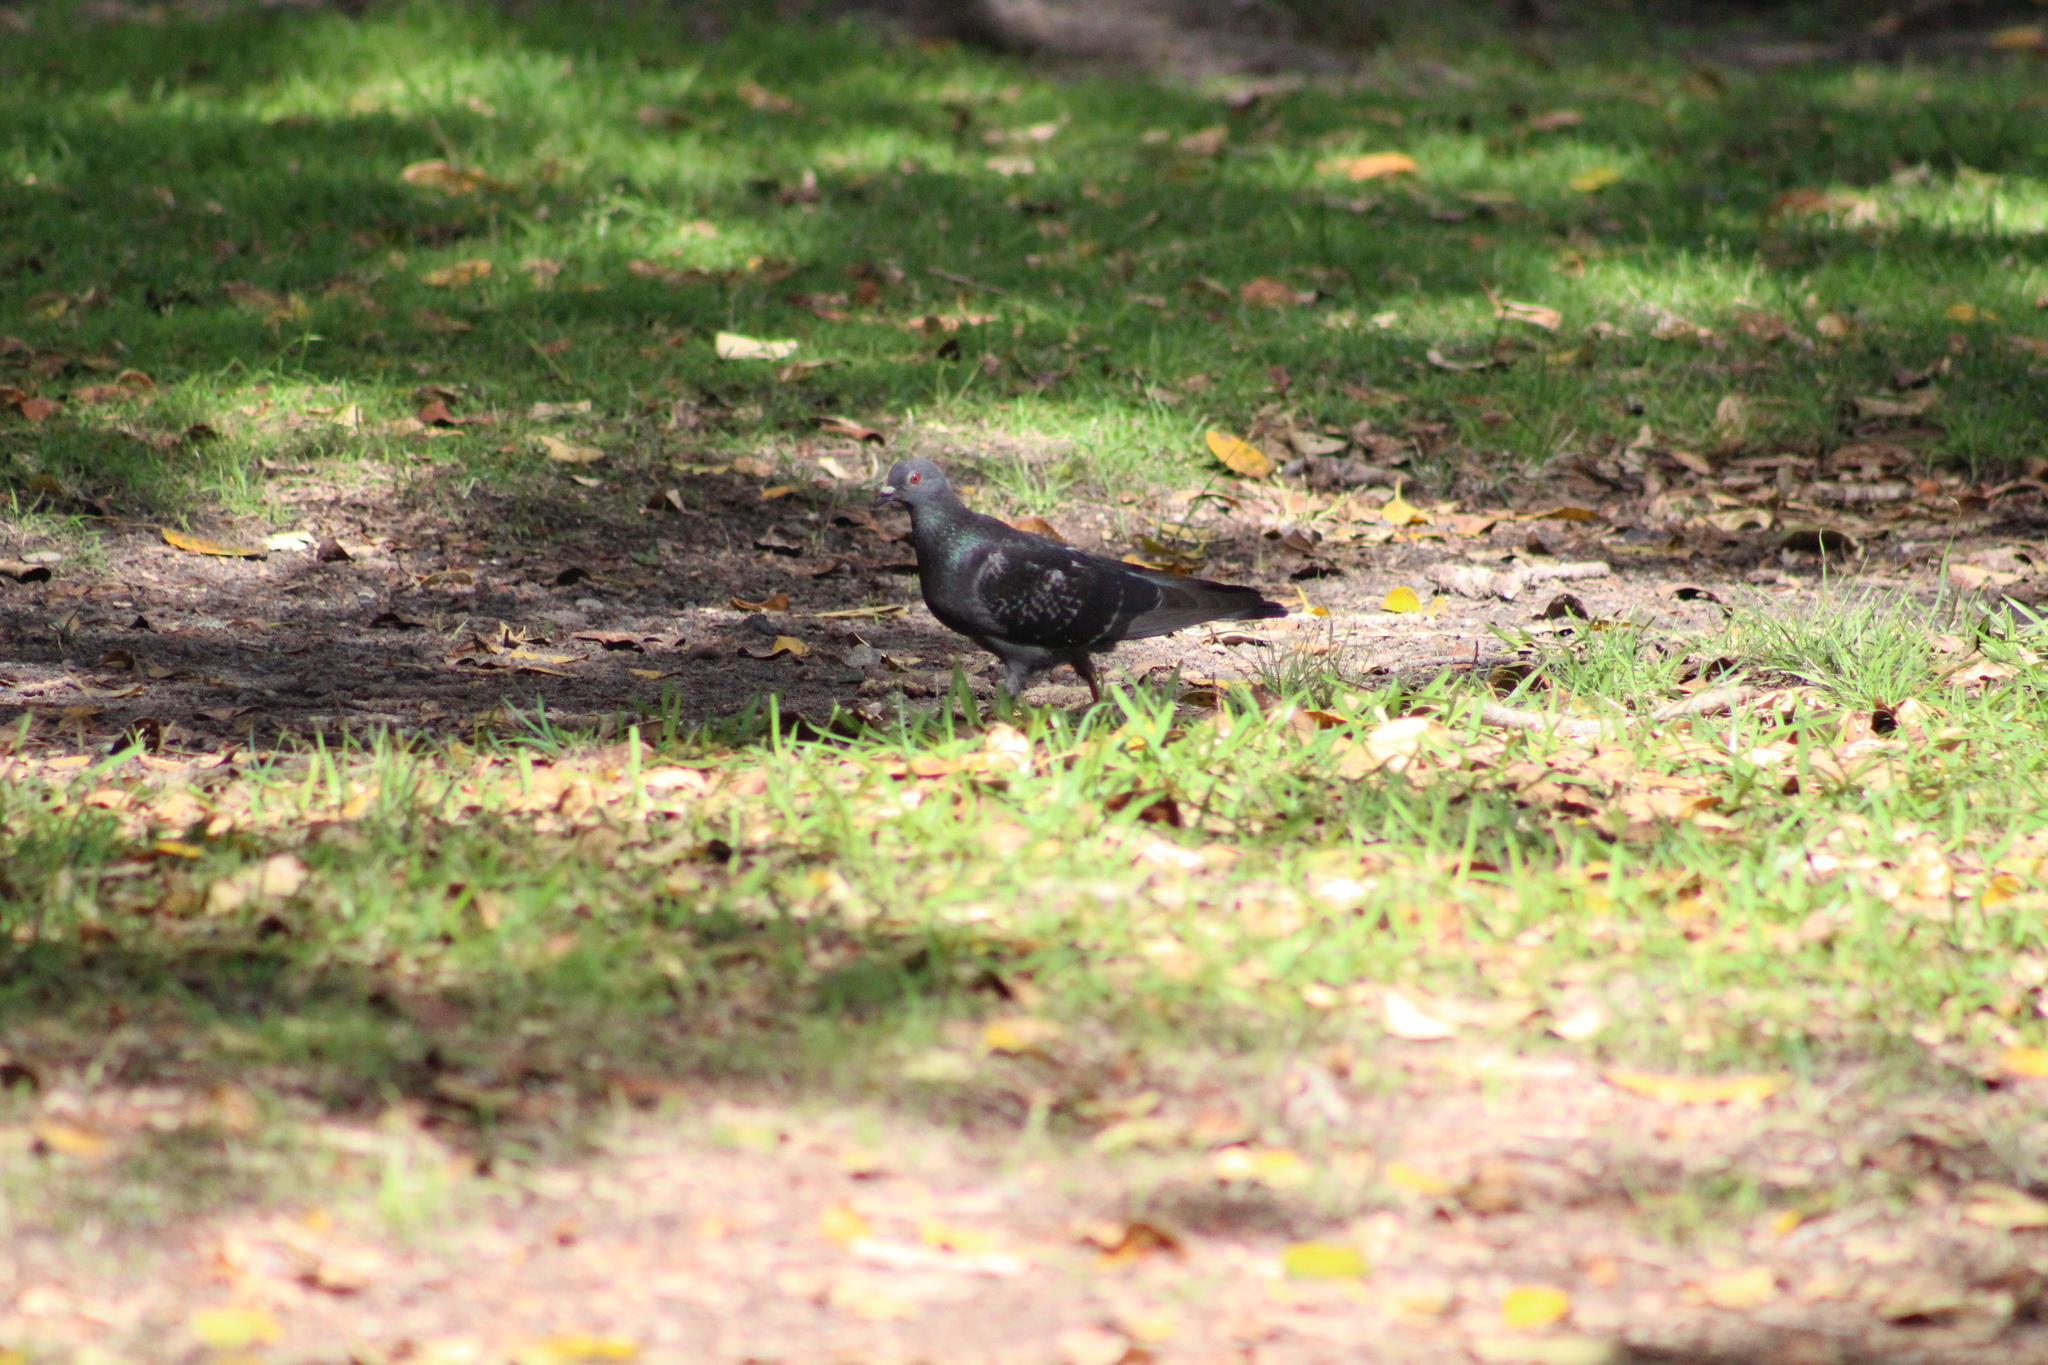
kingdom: Animalia
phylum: Chordata
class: Aves
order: Columbiformes
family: Columbidae
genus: Columba
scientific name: Columba livia
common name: Rock pigeon
